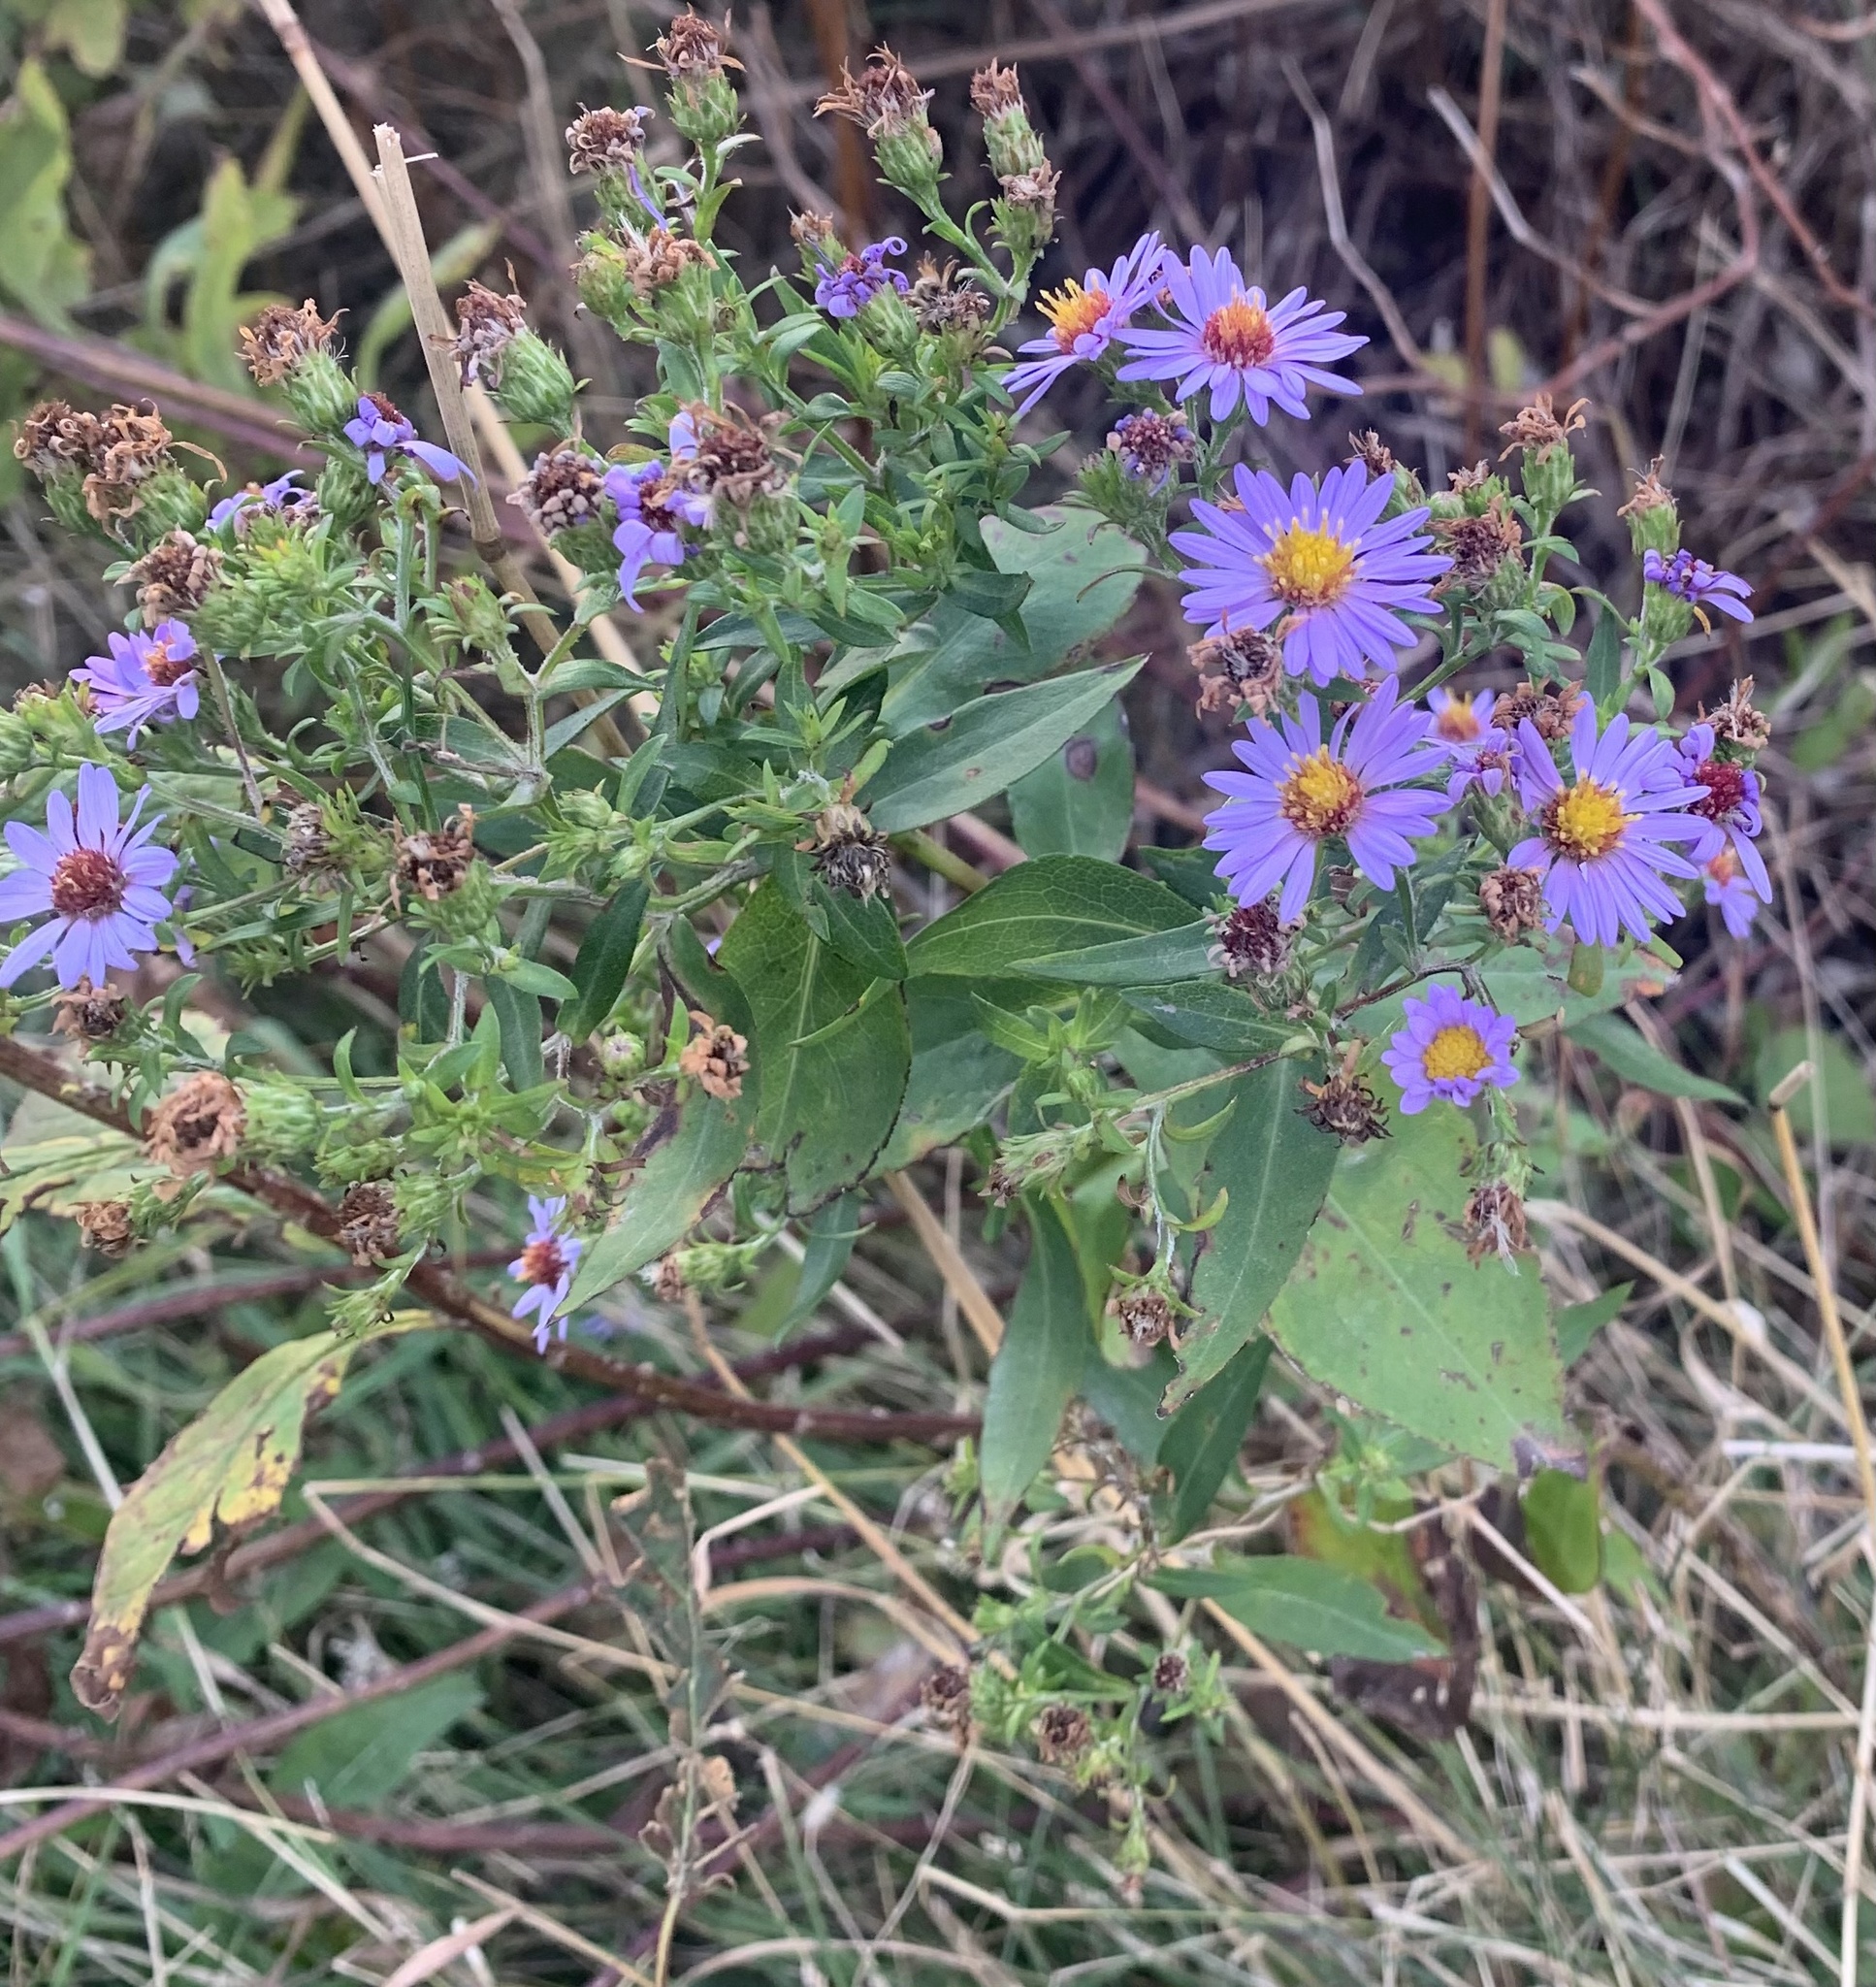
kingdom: Plantae
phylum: Tracheophyta
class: Magnoliopsida
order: Asterales
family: Asteraceae
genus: Symphyotrichum
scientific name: Symphyotrichum novi-belgii
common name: Michaelmas daisy
